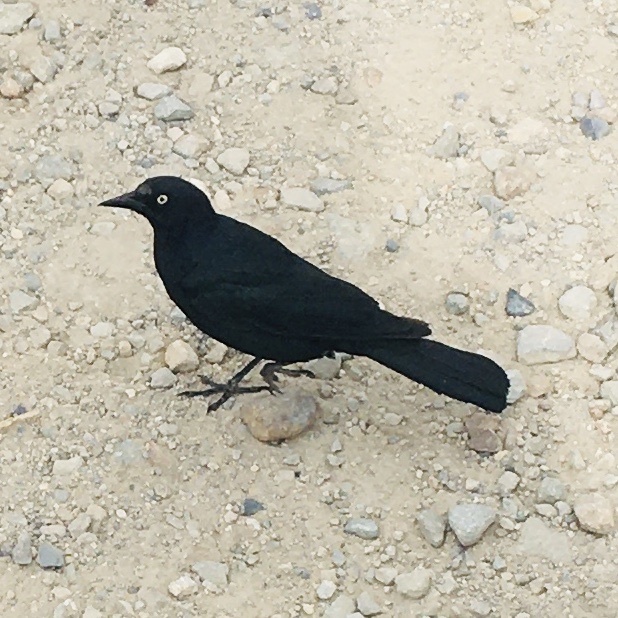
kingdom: Animalia
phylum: Chordata
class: Aves
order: Passeriformes
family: Icteridae
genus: Euphagus
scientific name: Euphagus cyanocephalus
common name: Brewer's blackbird
